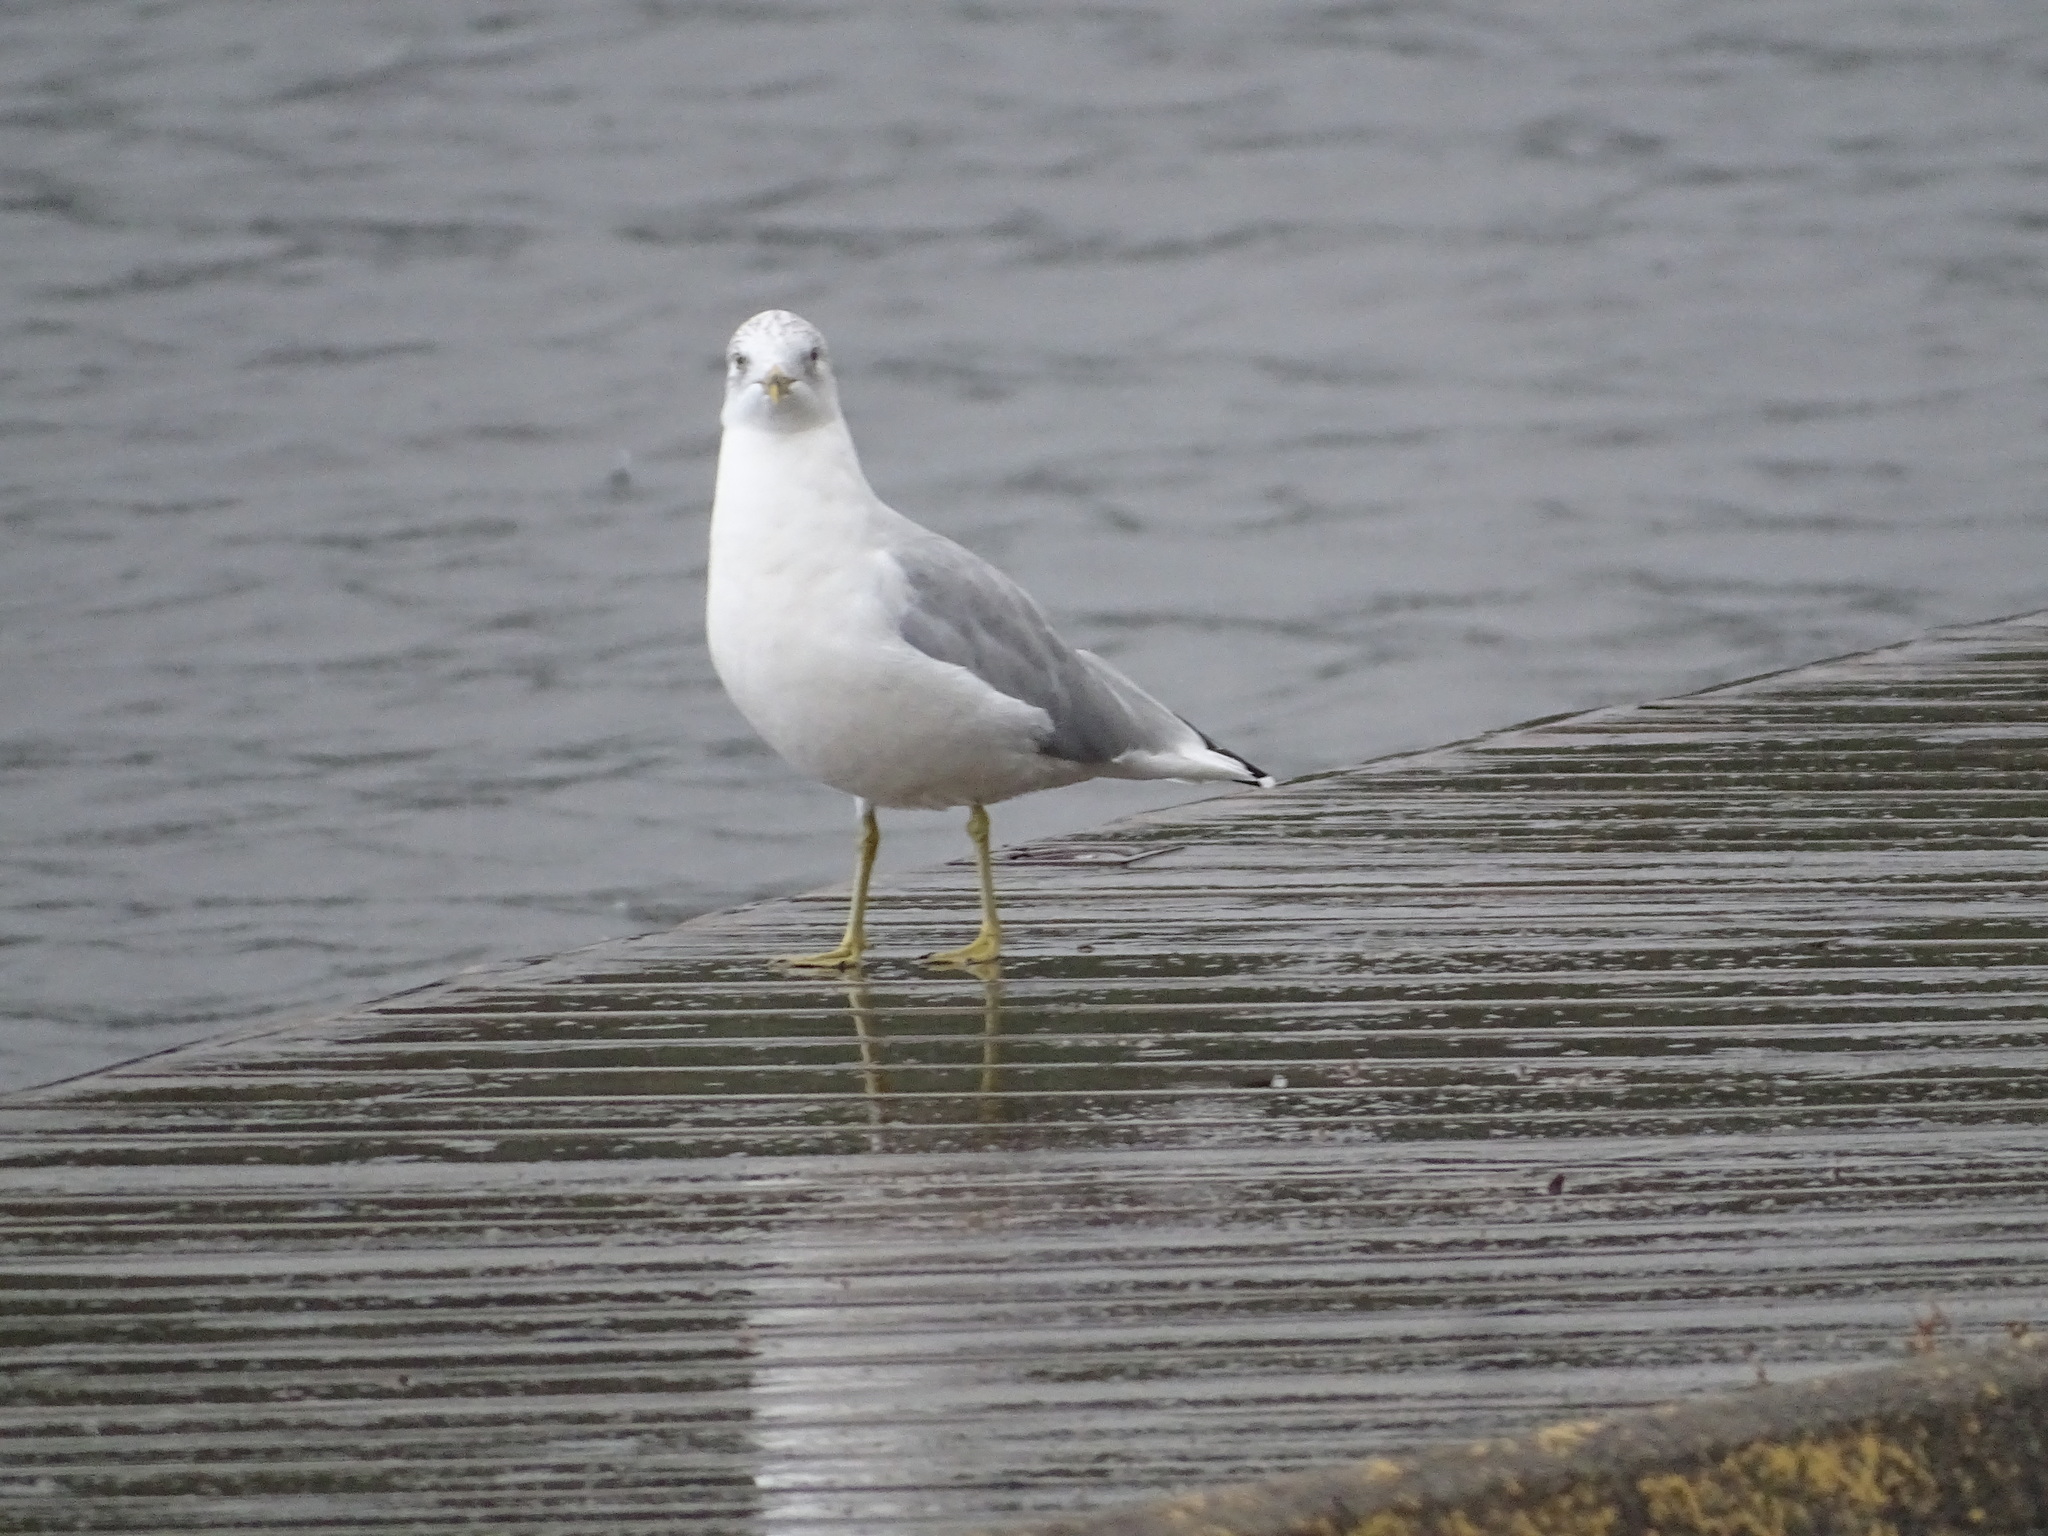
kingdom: Animalia
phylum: Chordata
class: Aves
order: Charadriiformes
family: Laridae
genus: Larus
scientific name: Larus delawarensis
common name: Ring-billed gull
